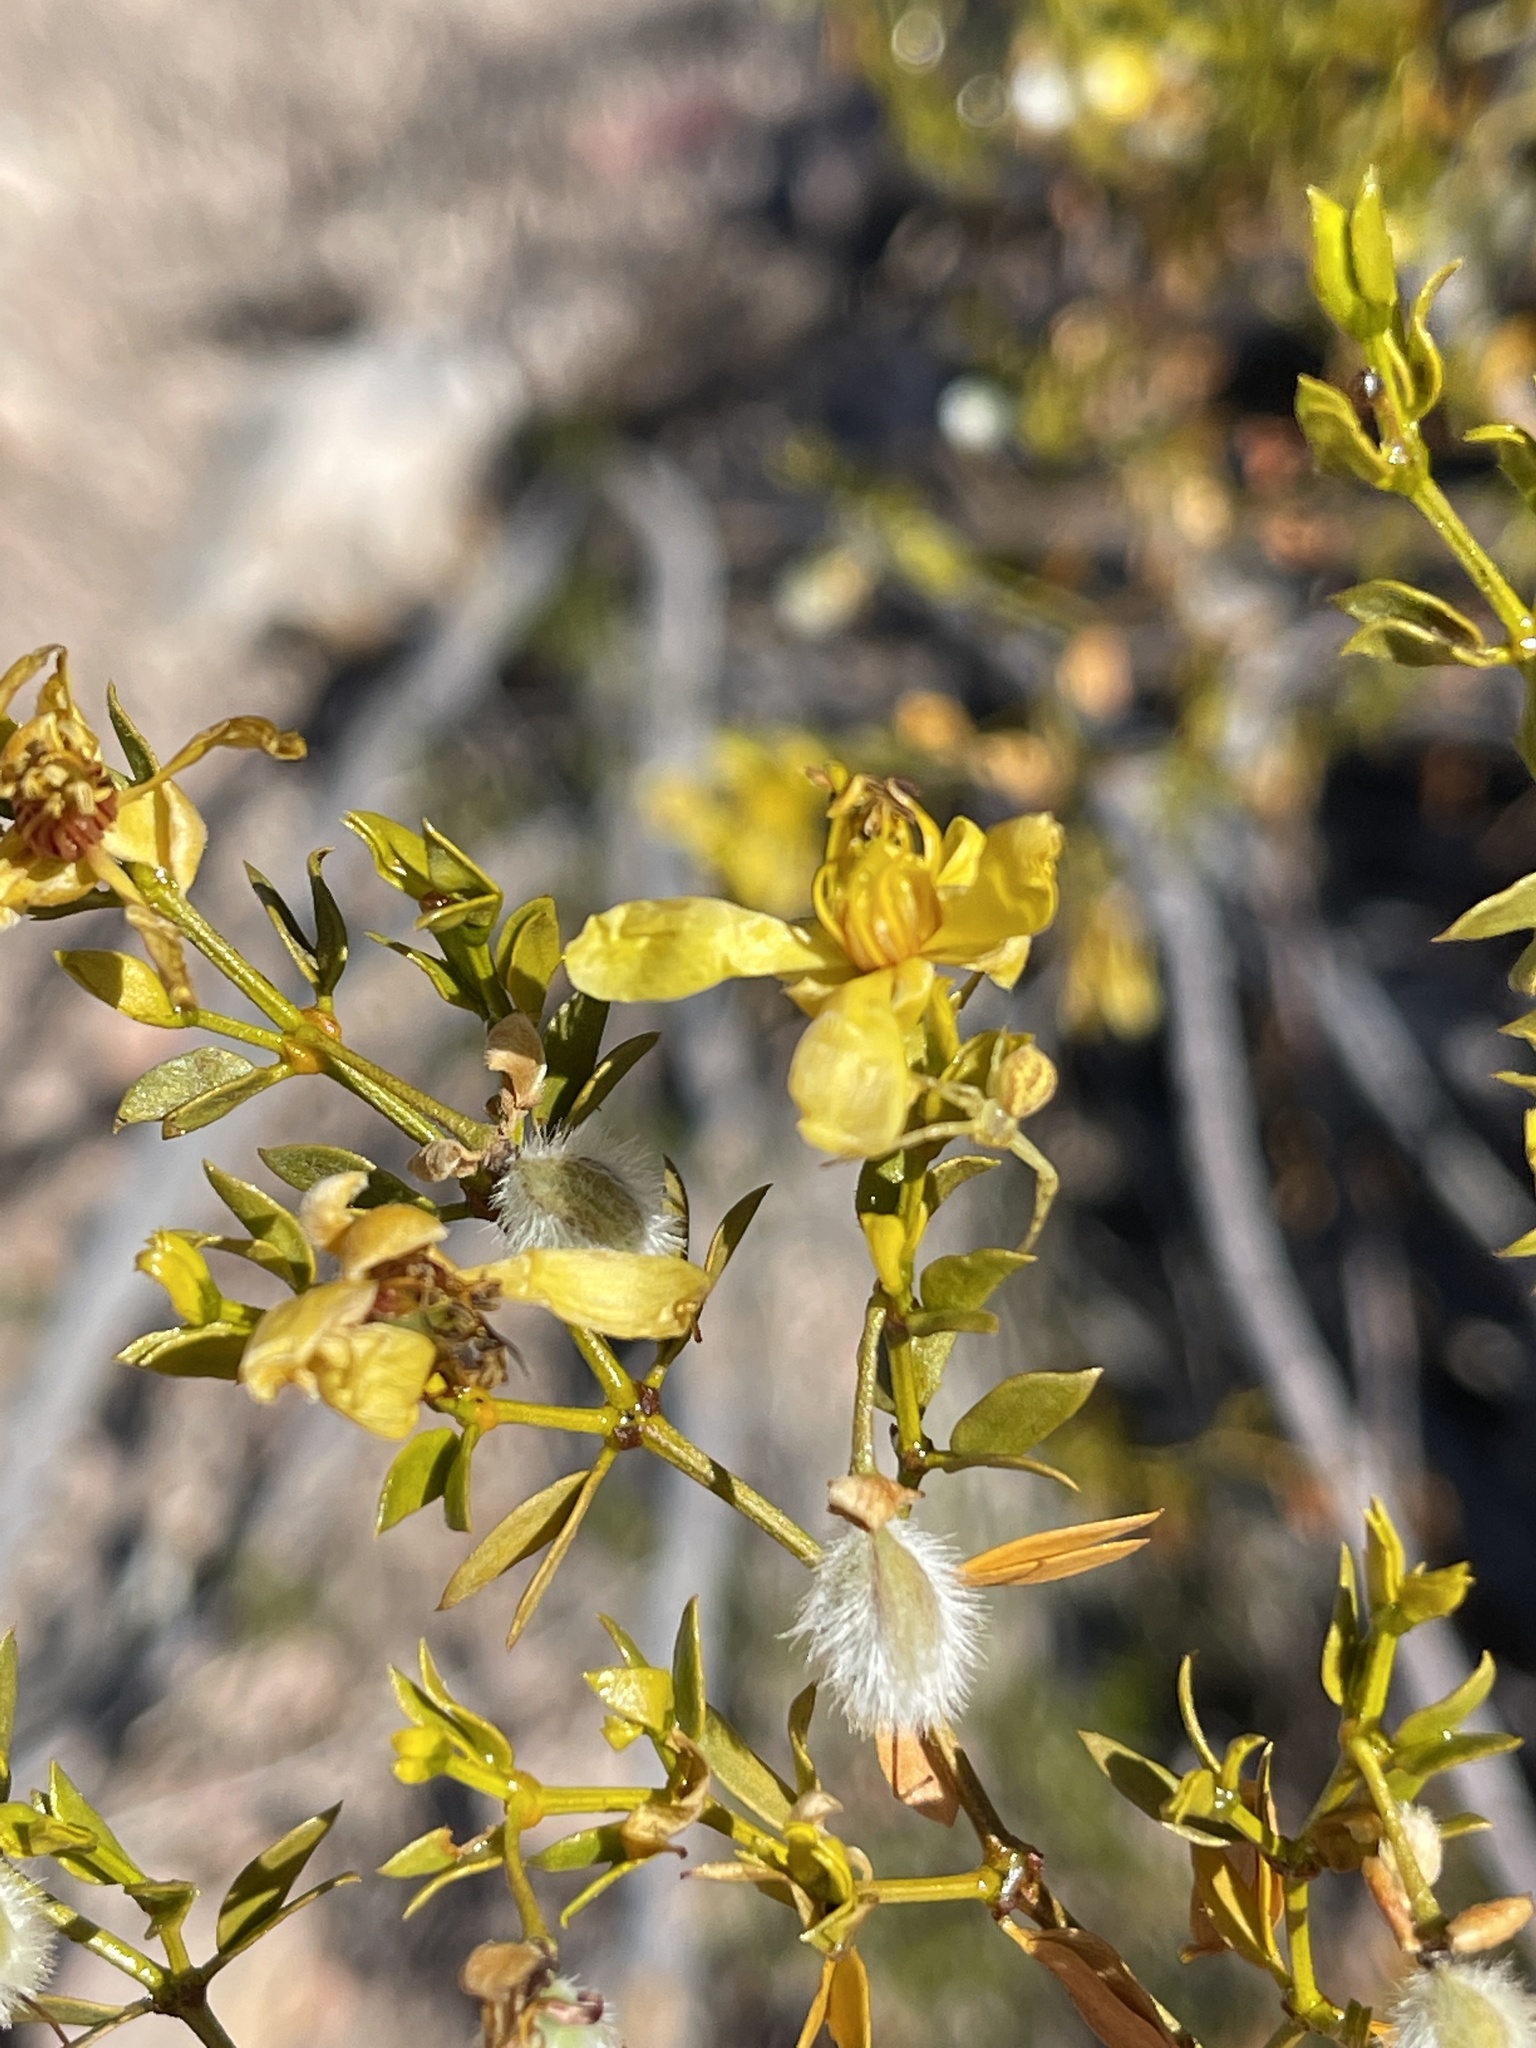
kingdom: Plantae
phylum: Tracheophyta
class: Magnoliopsida
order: Zygophyllales
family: Zygophyllaceae
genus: Larrea
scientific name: Larrea tridentata
